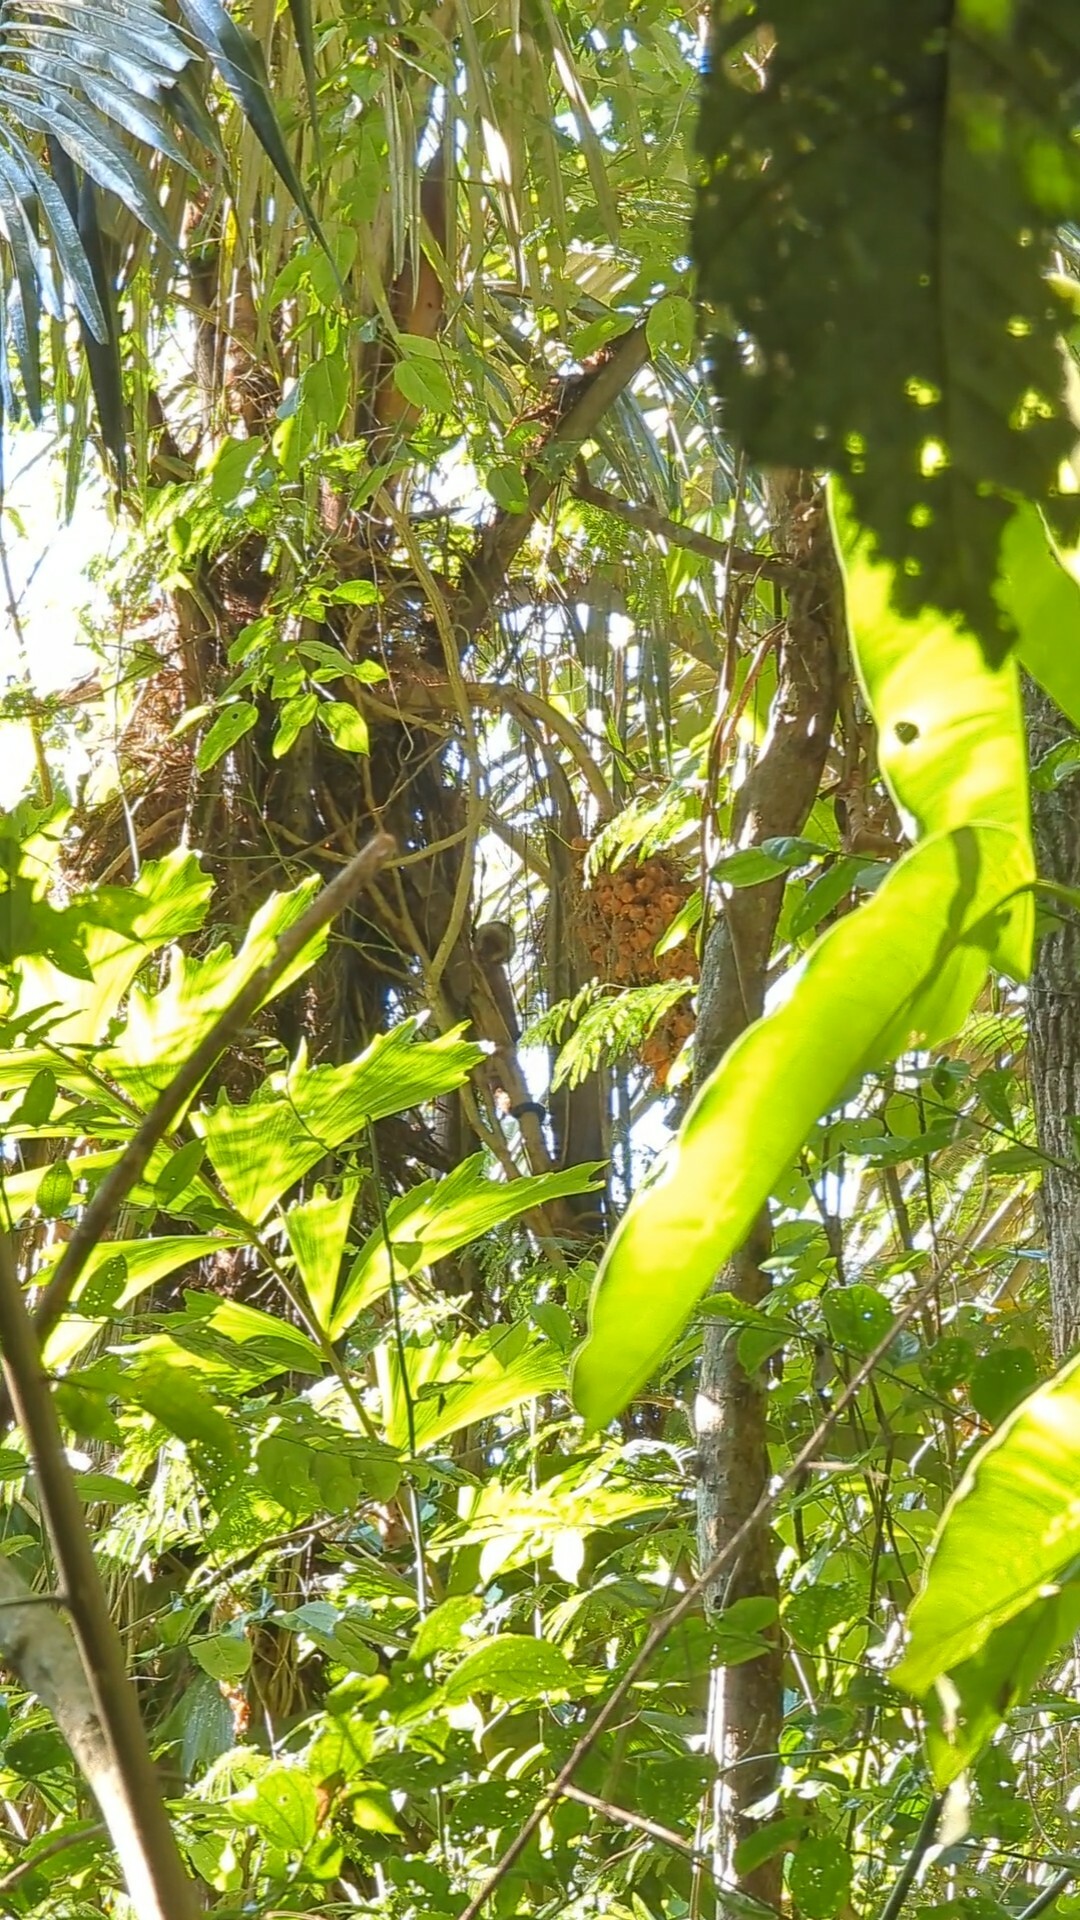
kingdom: Animalia
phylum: Chordata
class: Mammalia
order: Primates
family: Cebidae
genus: Sapajus
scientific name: Sapajus apella
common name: Tufted capuchin
